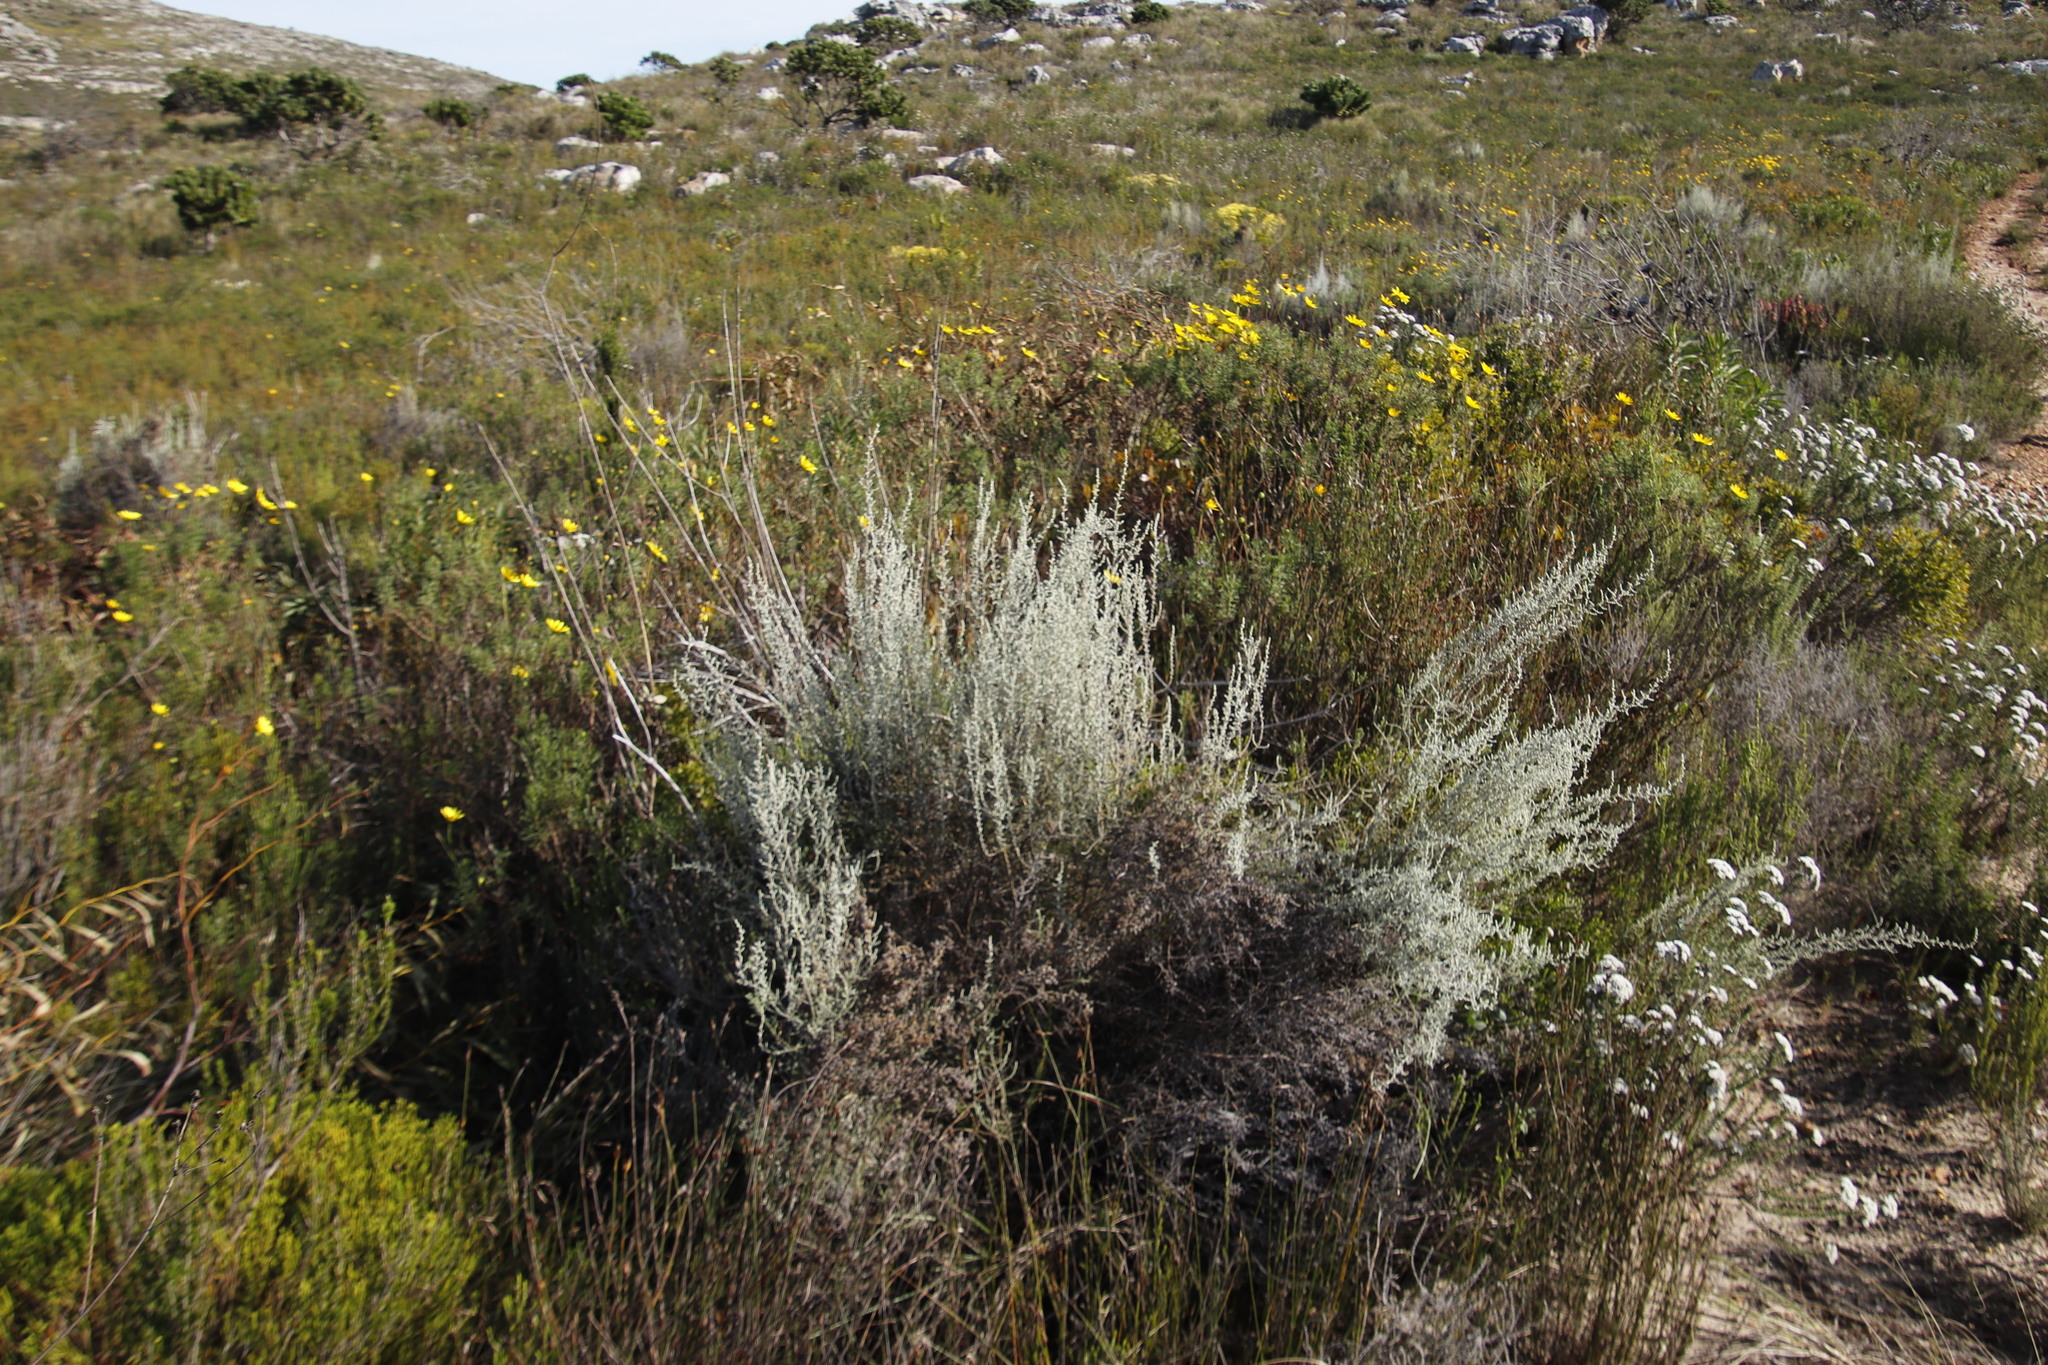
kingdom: Plantae
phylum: Tracheophyta
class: Magnoliopsida
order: Asterales
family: Asteraceae
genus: Seriphium
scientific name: Seriphium plumosum
